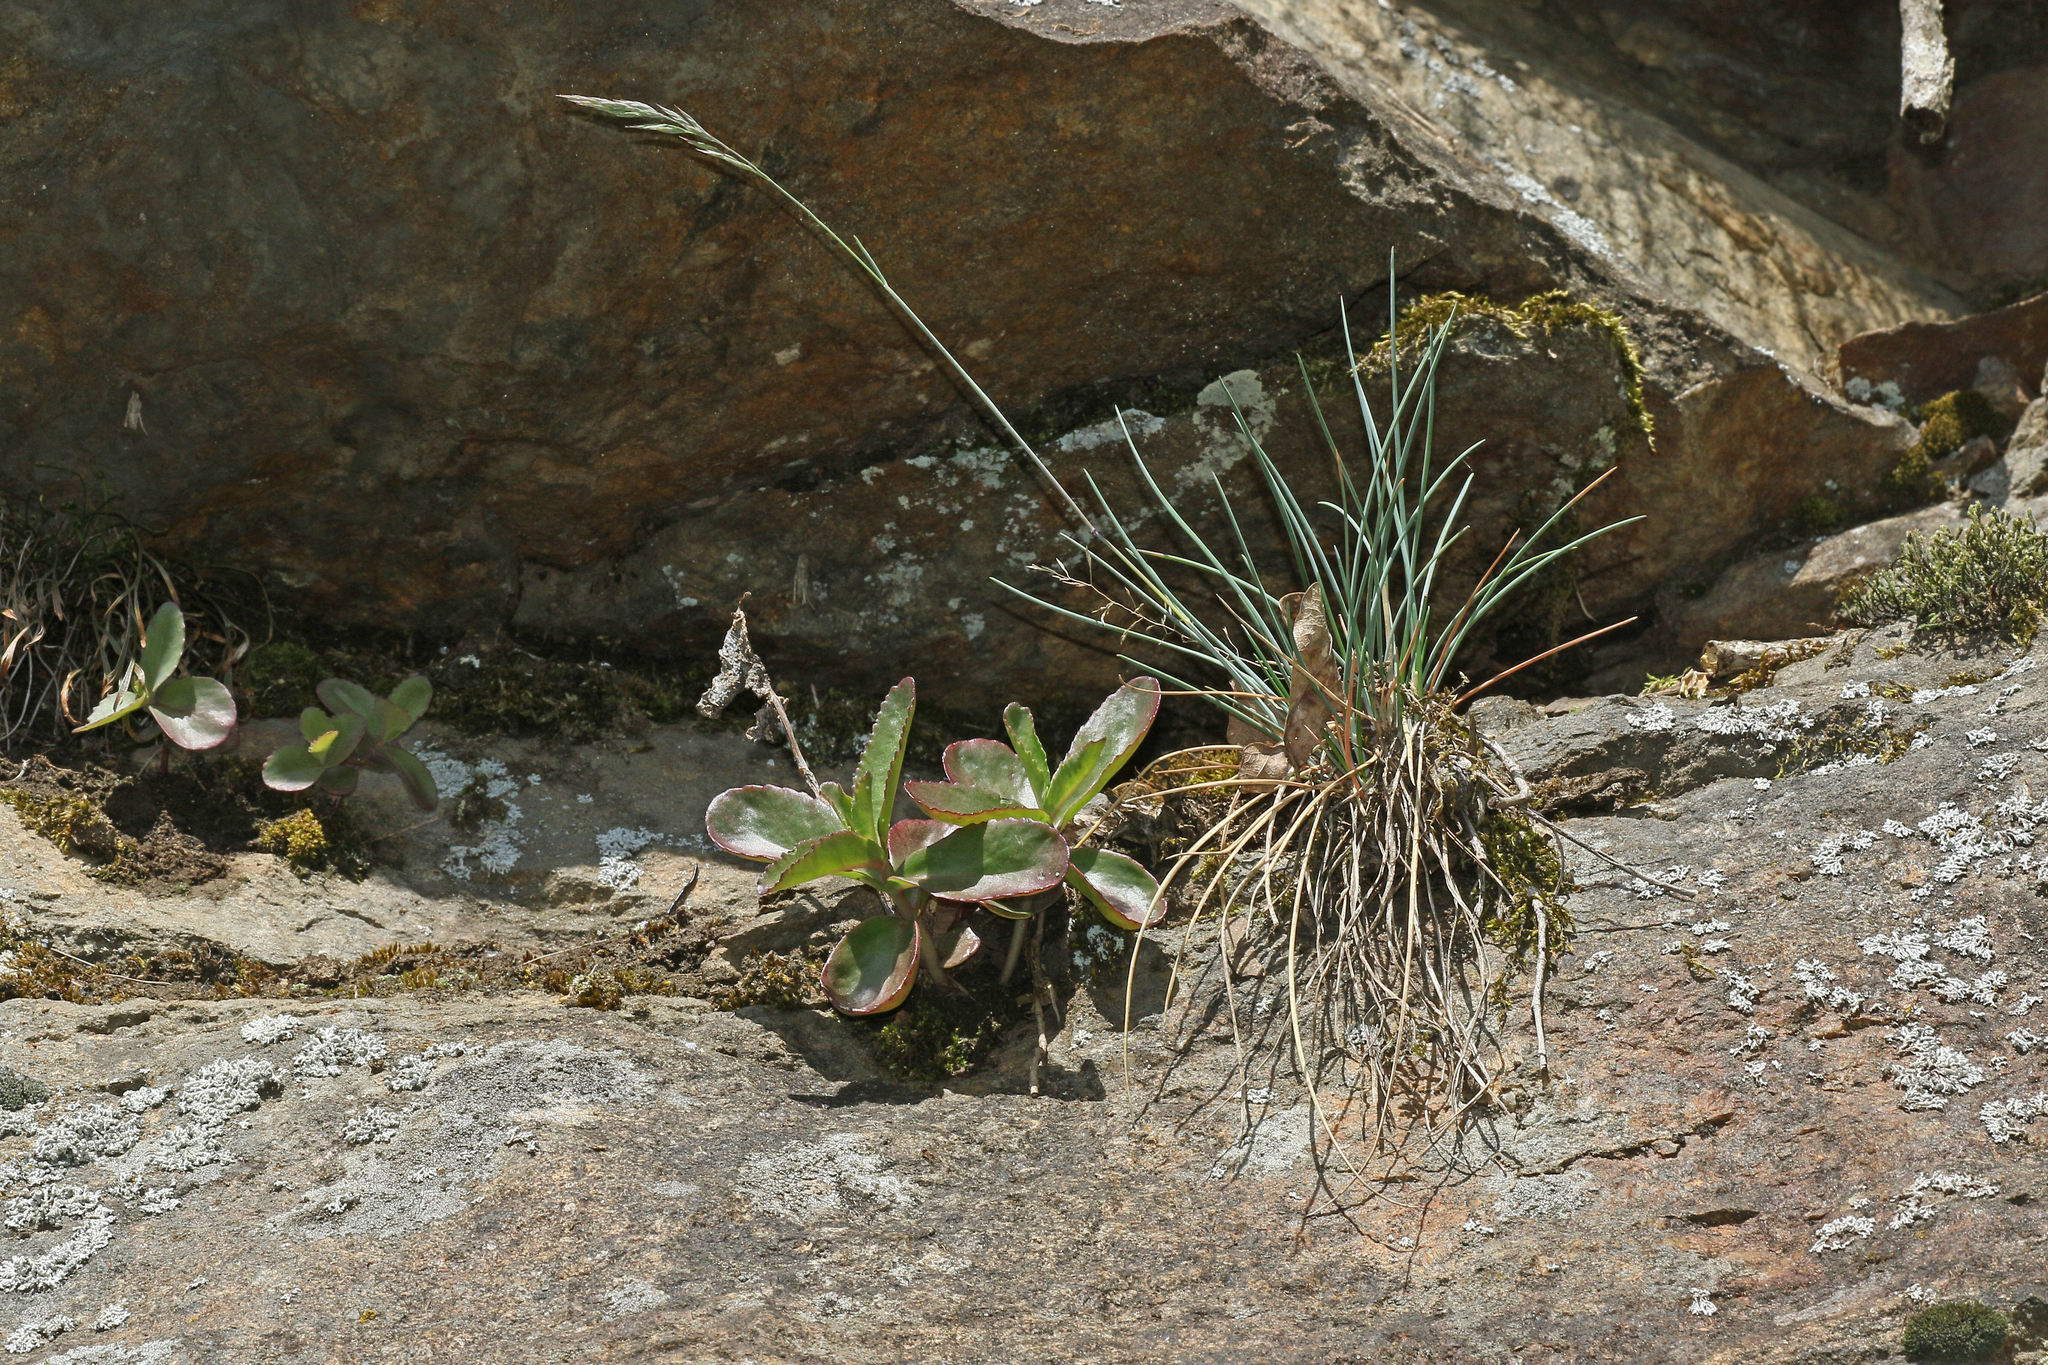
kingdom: Plantae
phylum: Tracheophyta
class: Liliopsida
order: Poales
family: Poaceae
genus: Festuca
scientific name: Festuca pallens
